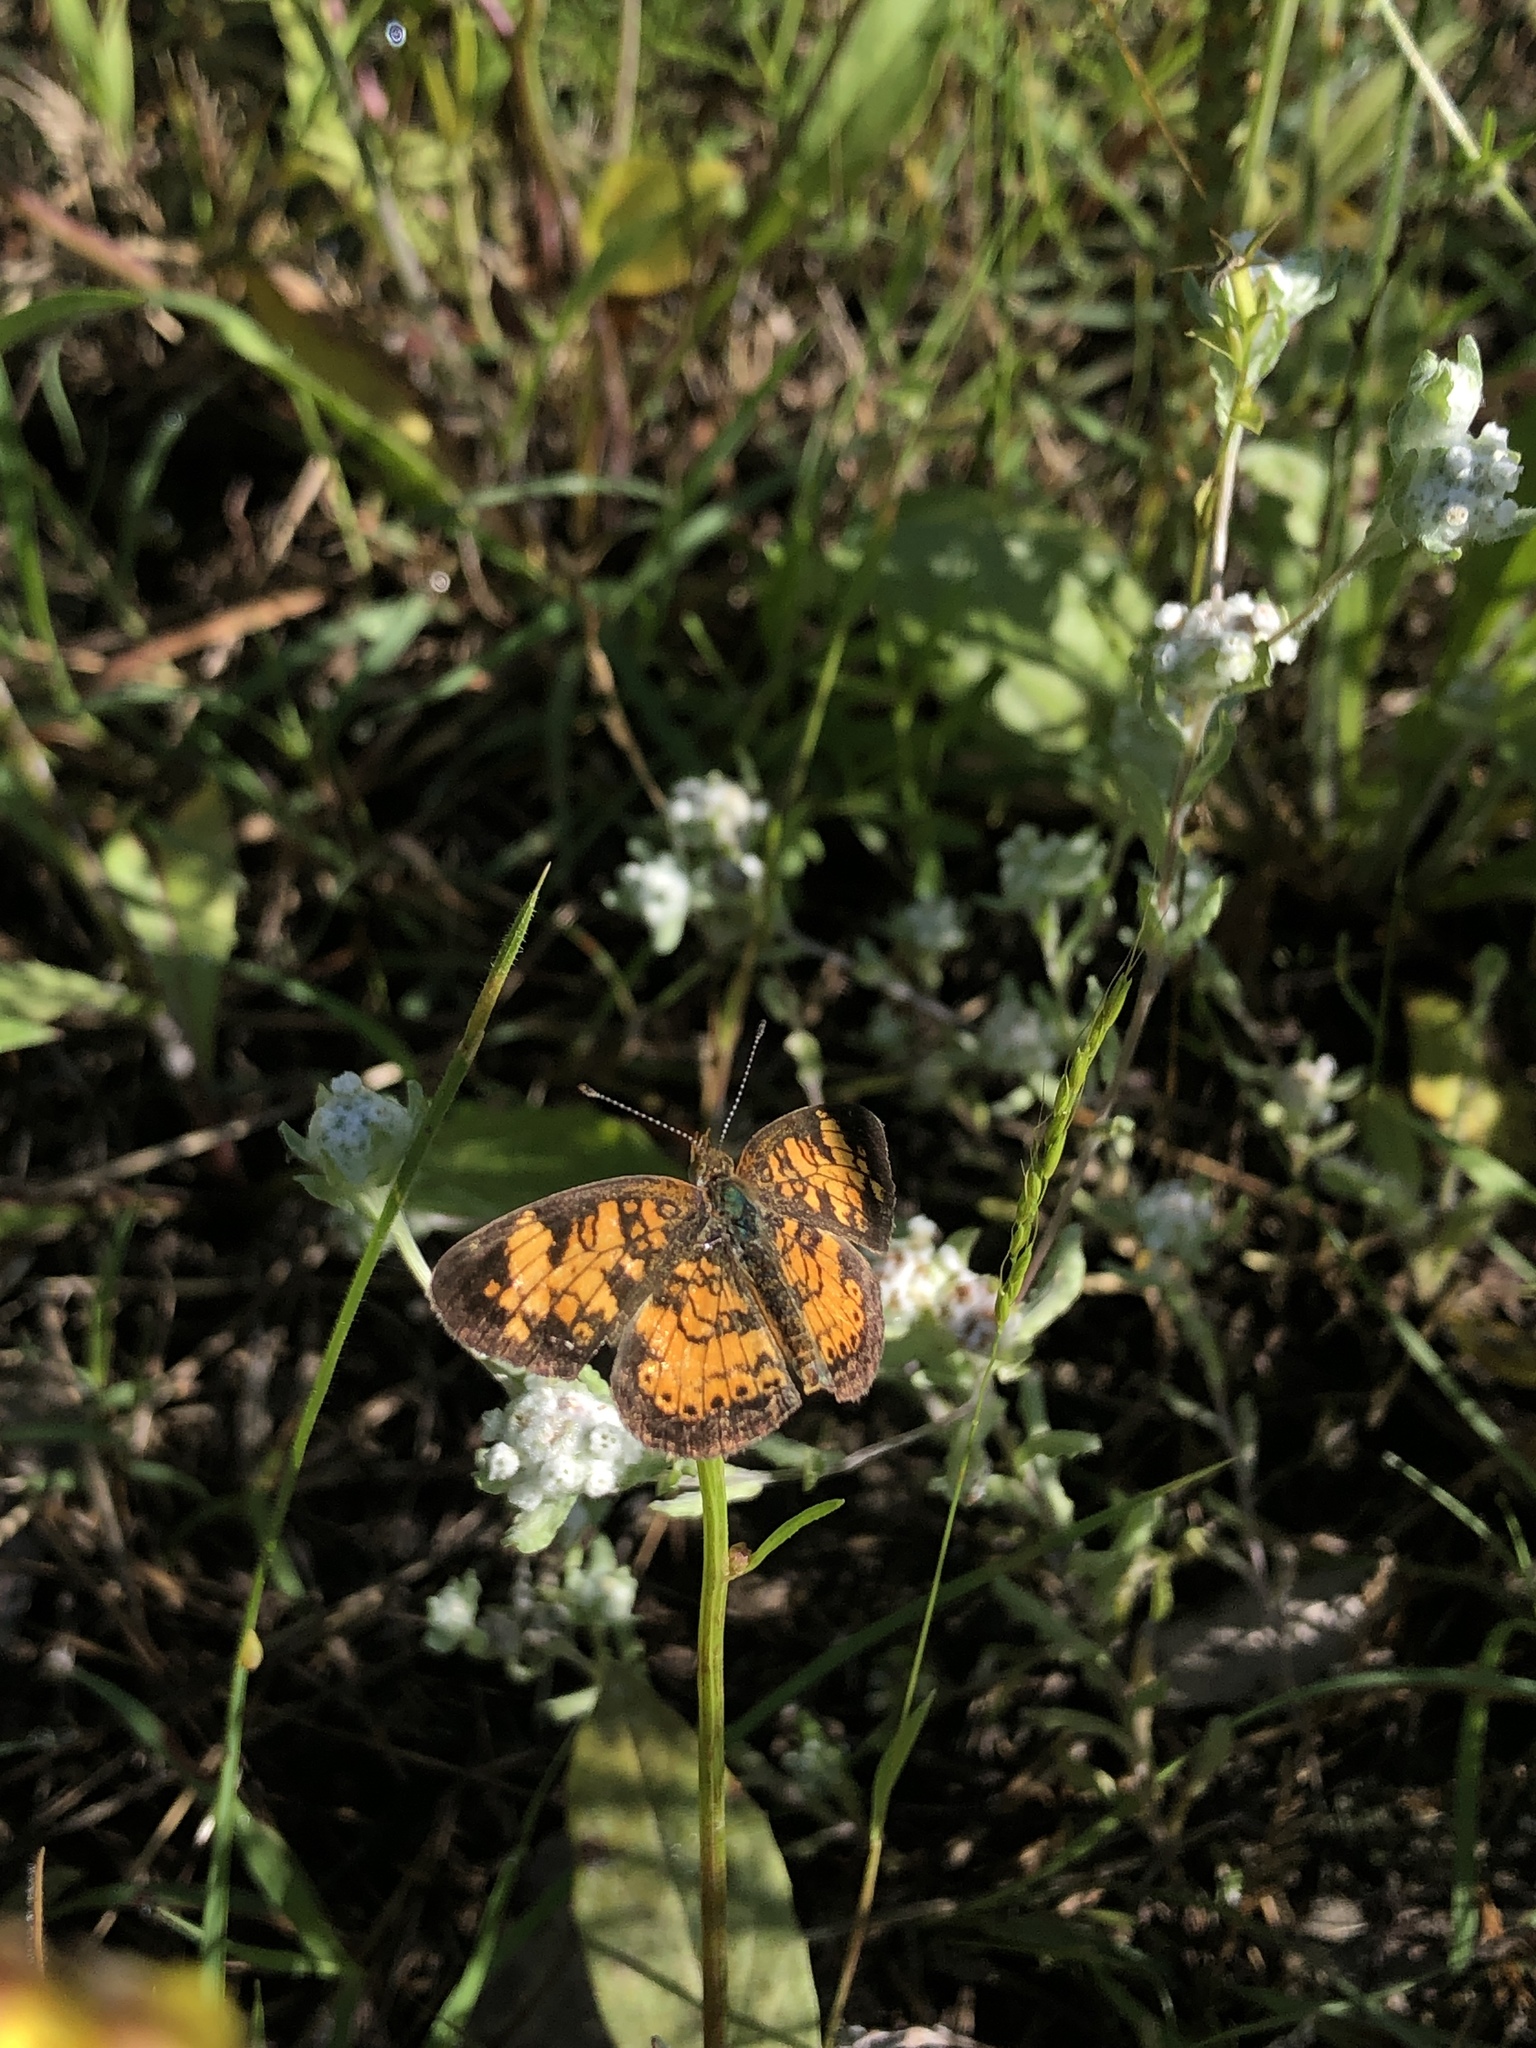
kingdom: Animalia
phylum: Arthropoda
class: Insecta
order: Lepidoptera
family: Nymphalidae
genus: Phyciodes
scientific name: Phyciodes tharos
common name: Pearl crescent
